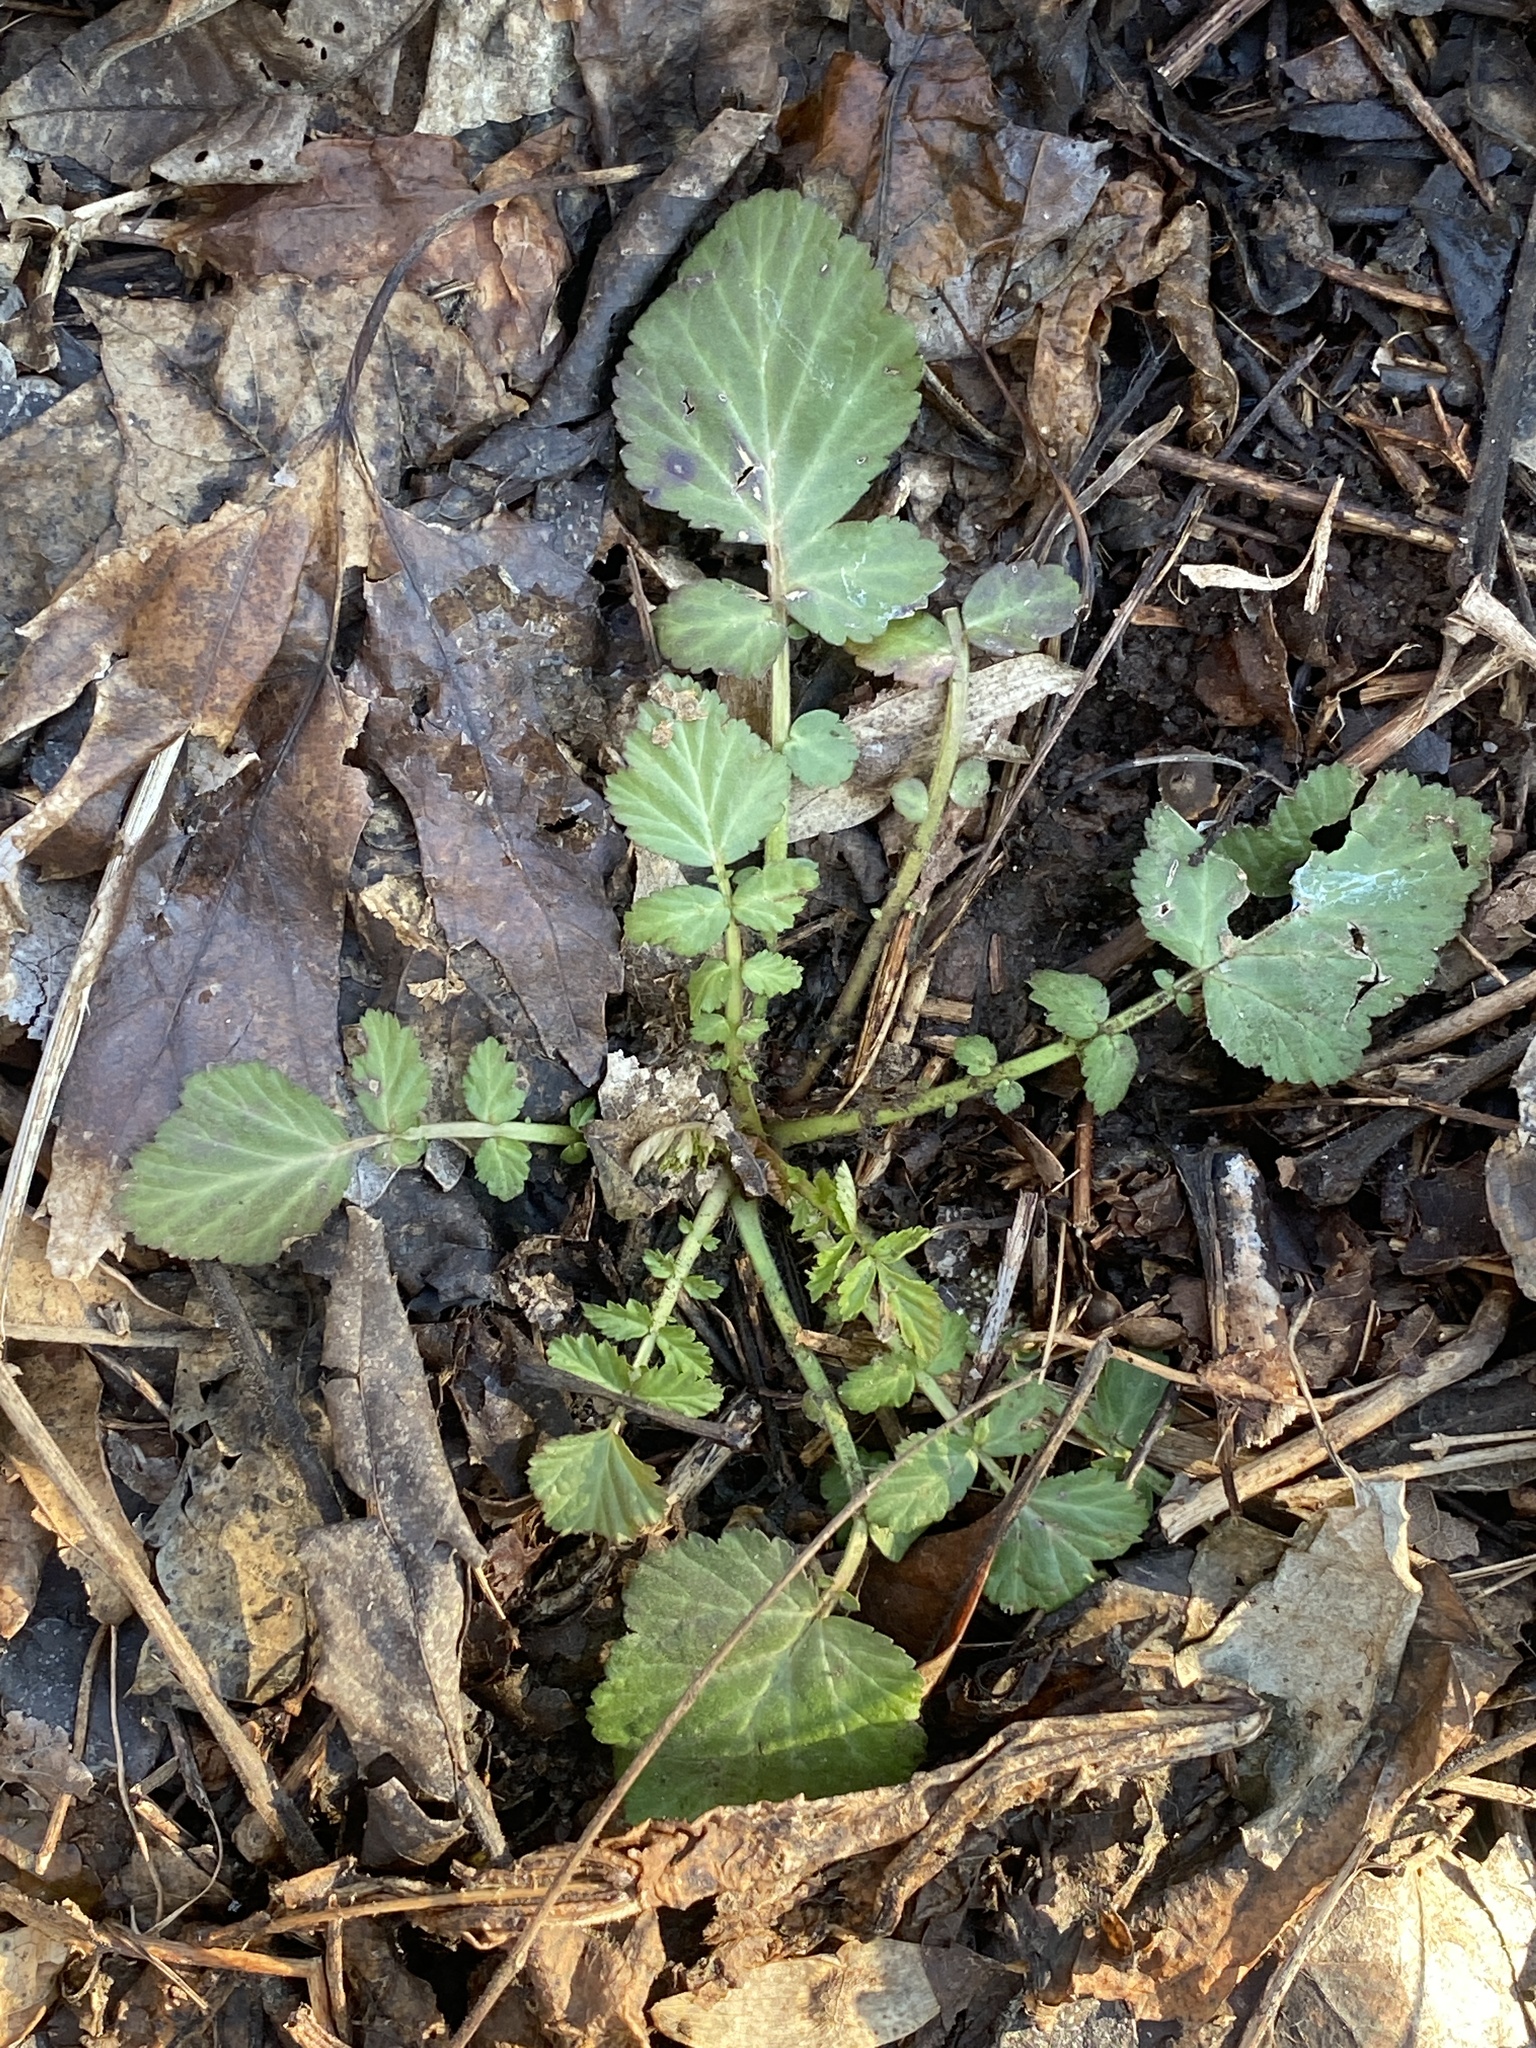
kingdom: Plantae
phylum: Tracheophyta
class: Magnoliopsida
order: Rosales
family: Rosaceae
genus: Geum
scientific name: Geum canadense
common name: White avens
